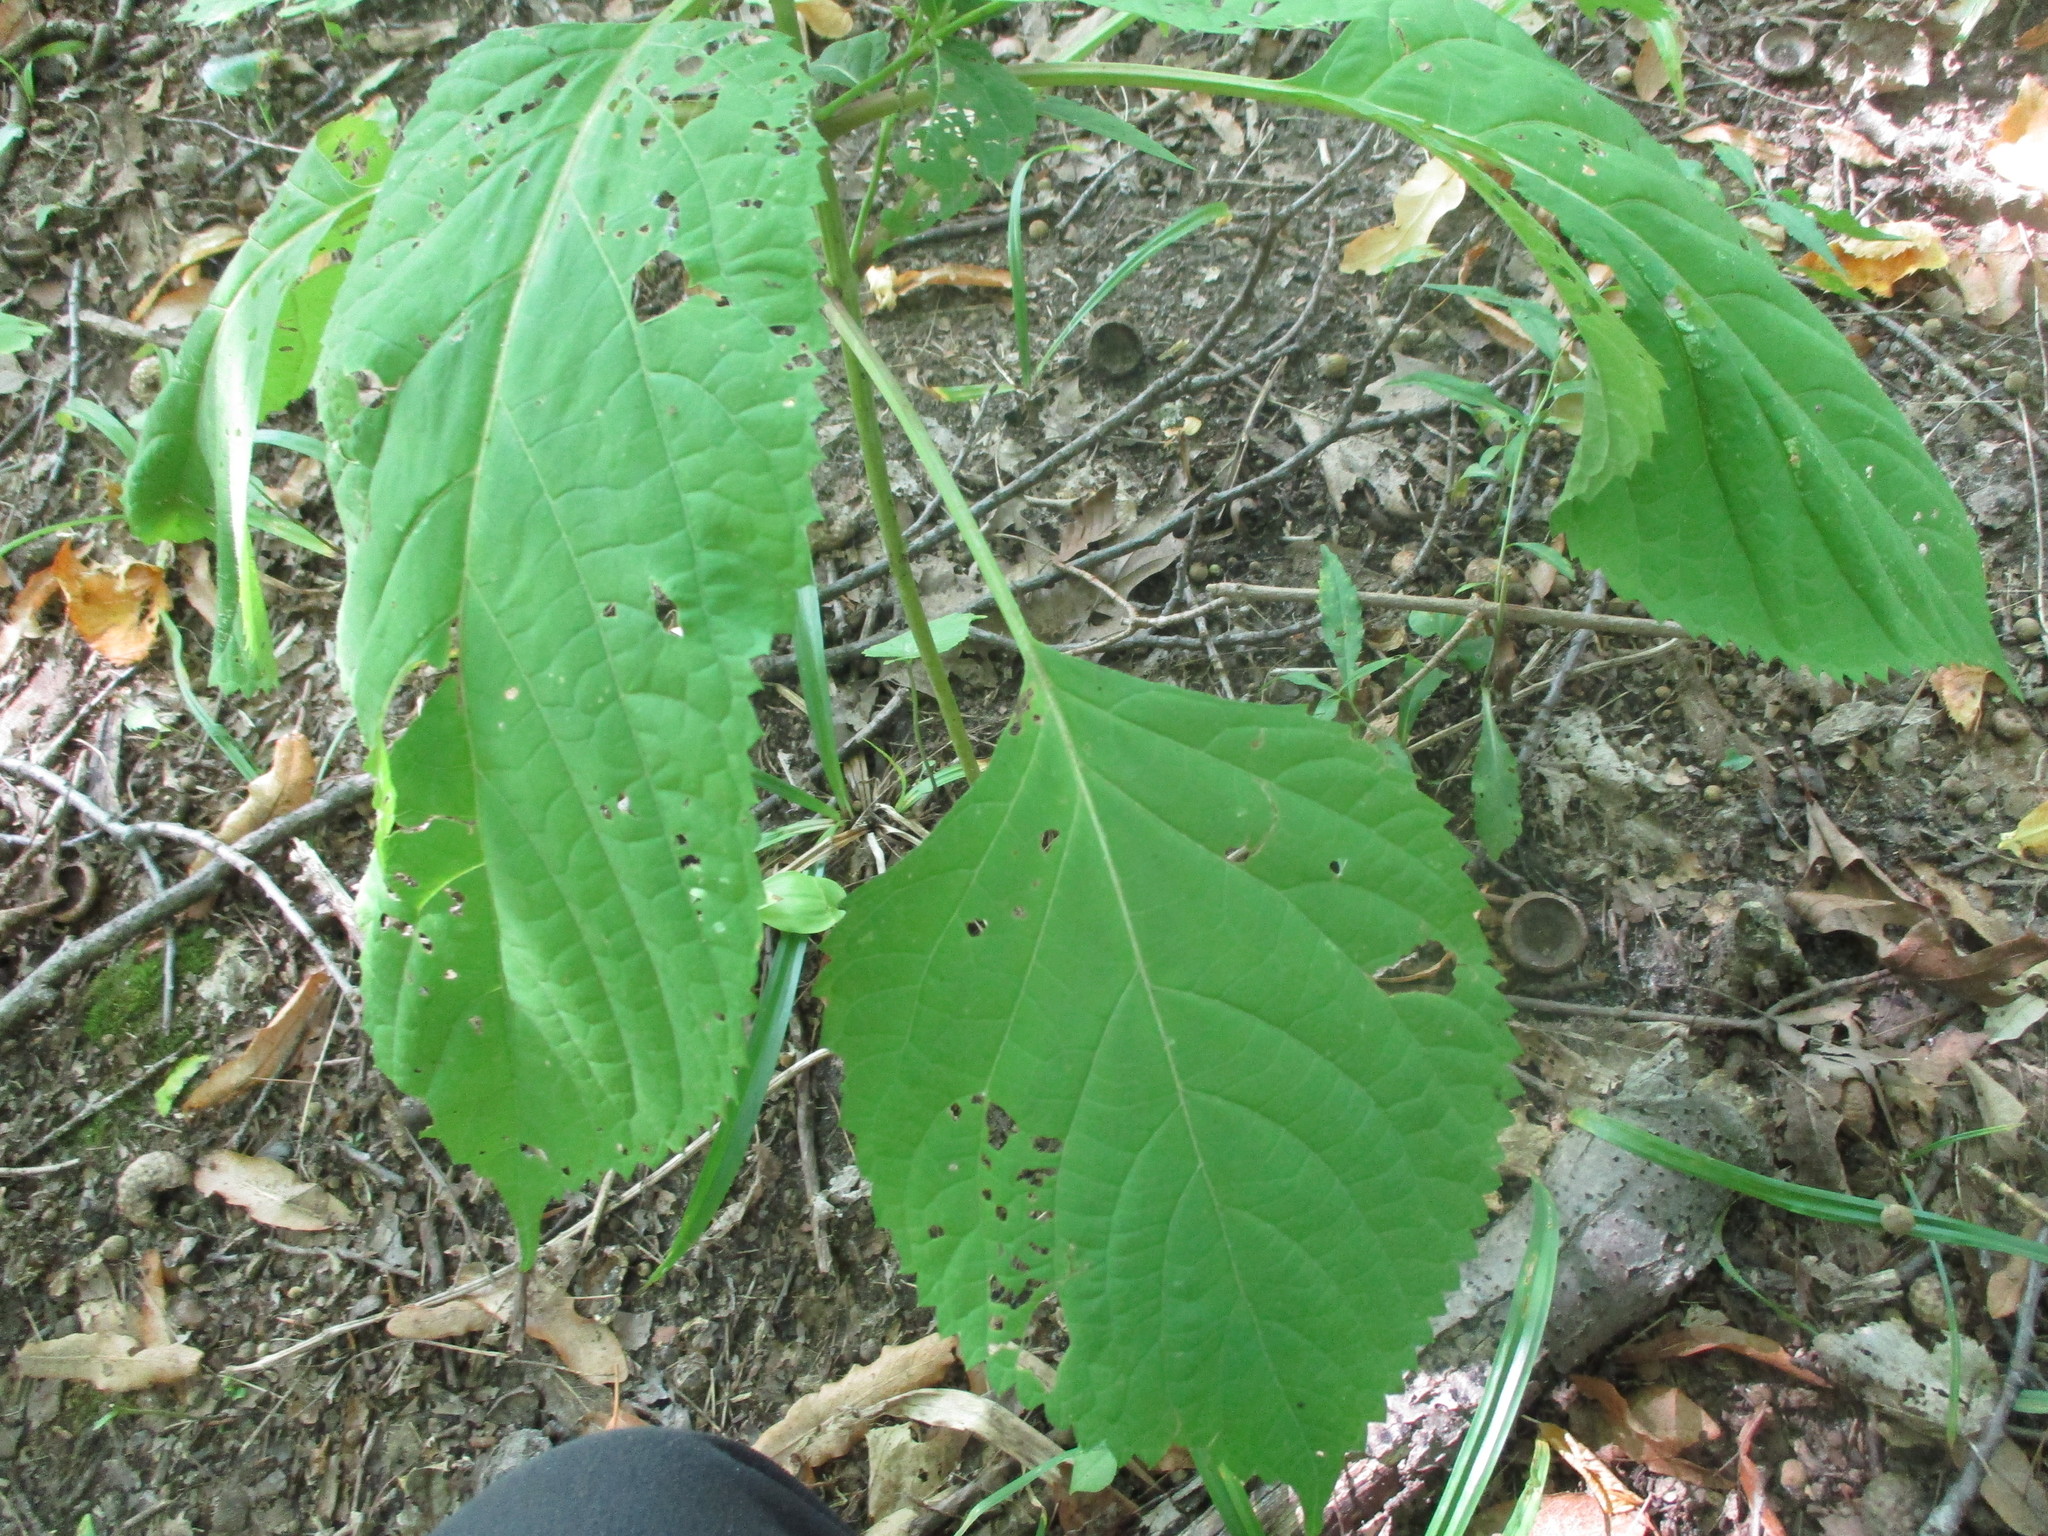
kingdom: Plantae
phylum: Tracheophyta
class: Magnoliopsida
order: Lamiales
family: Lamiaceae
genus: Collinsonia
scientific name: Collinsonia canadensis
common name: Northern horsebalm
